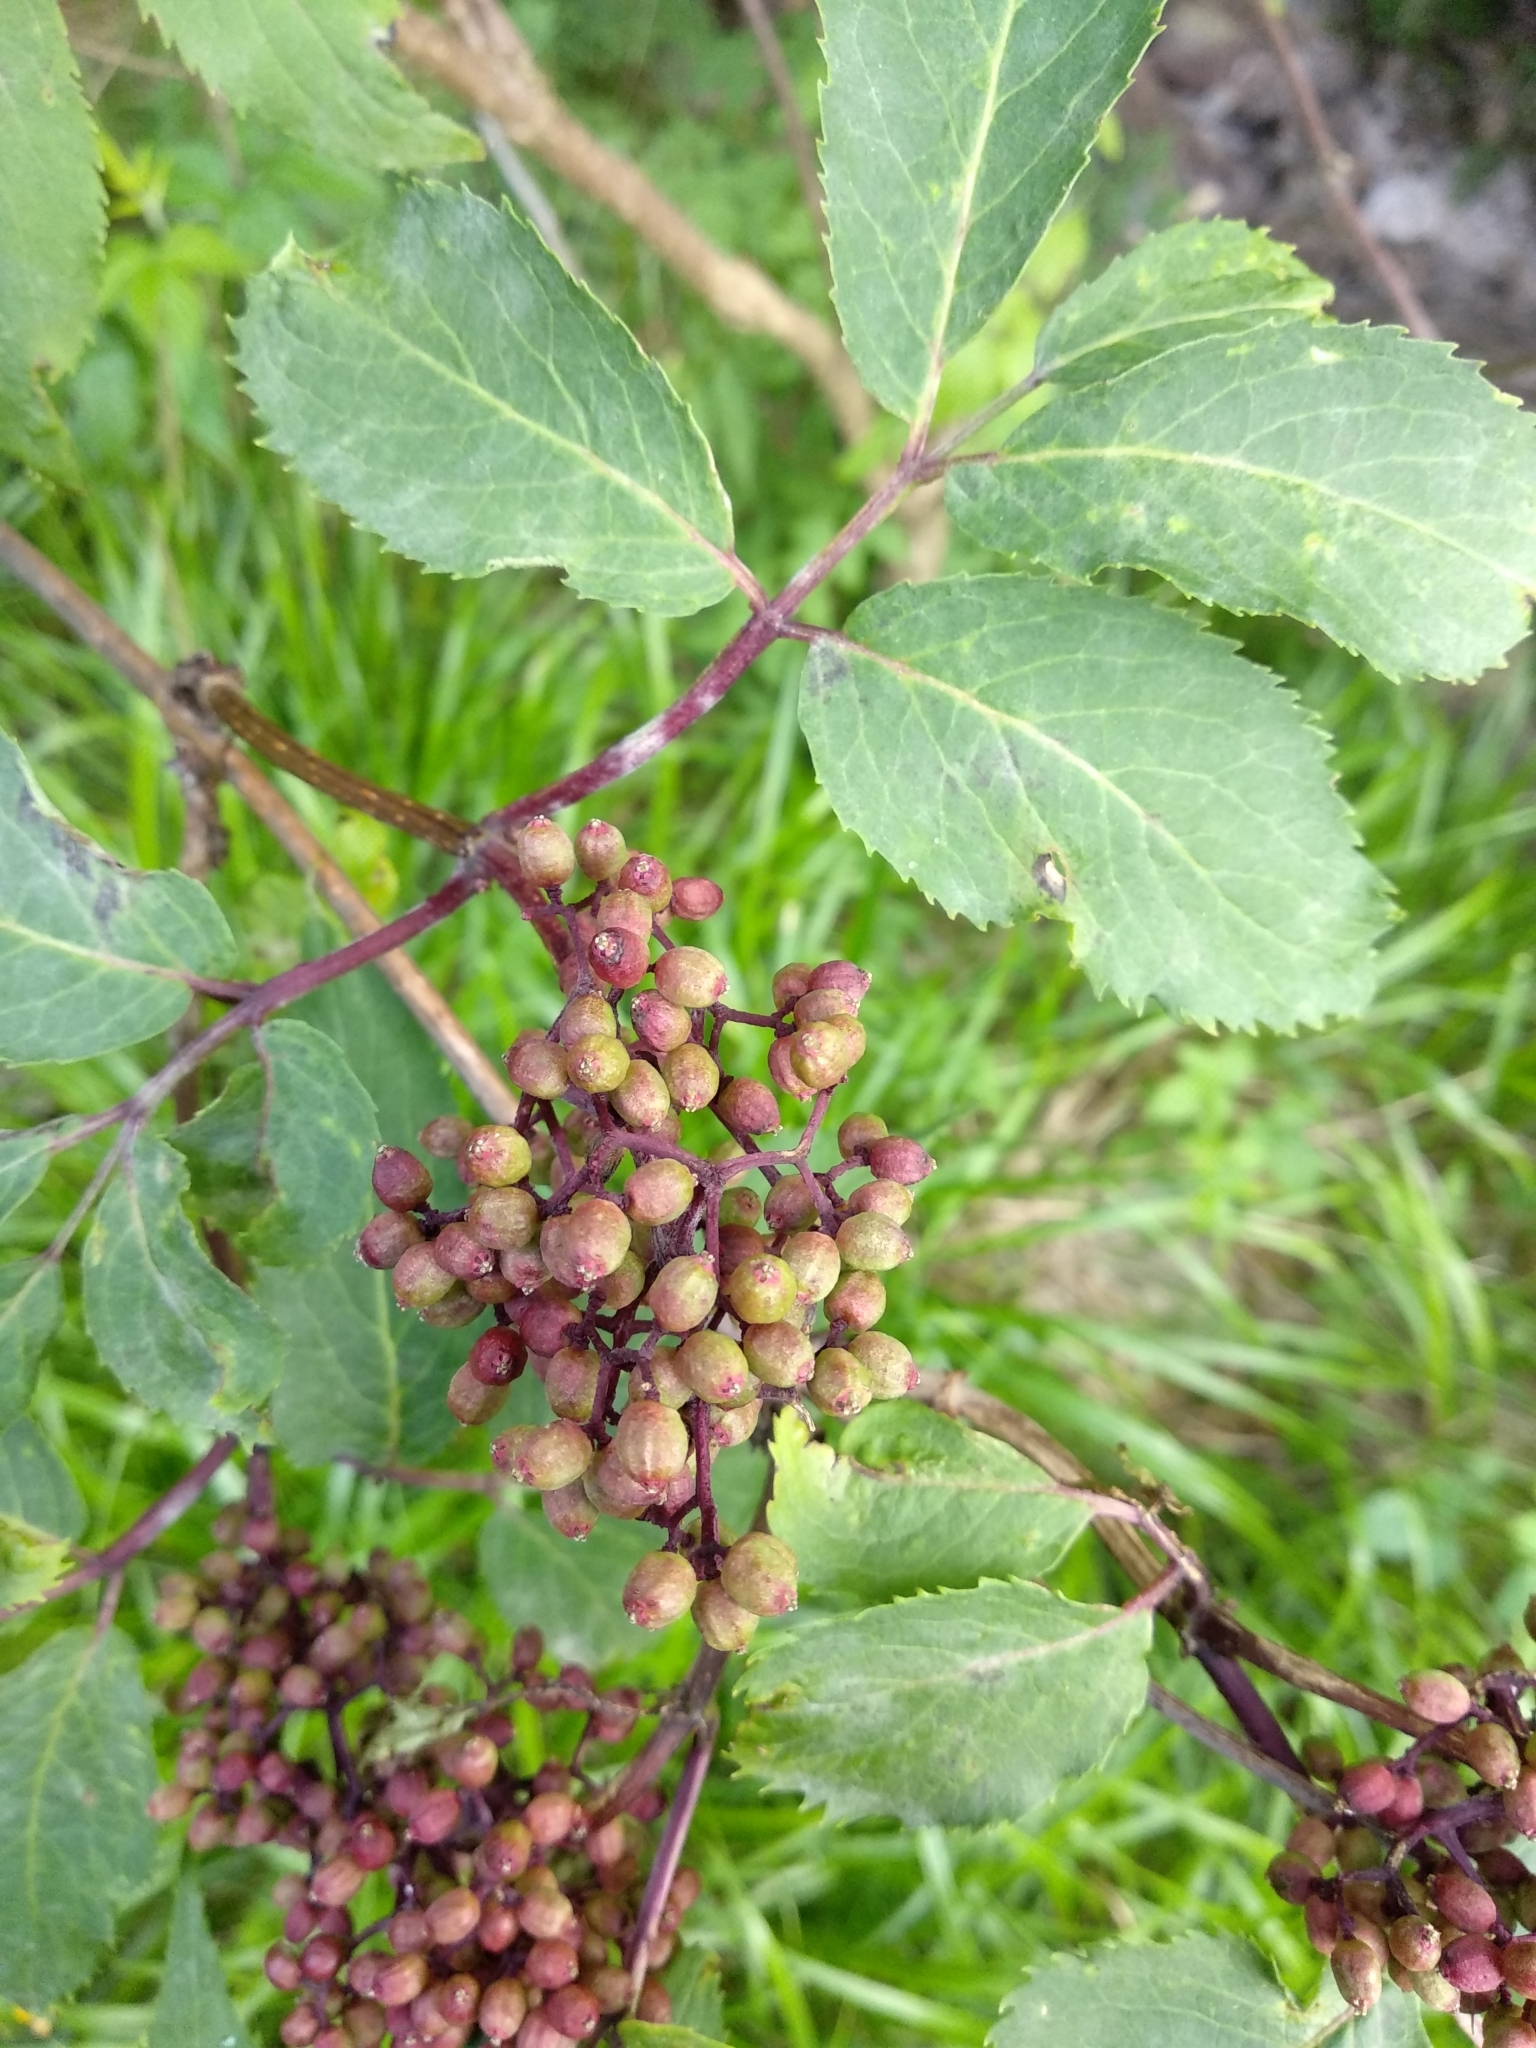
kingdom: Plantae
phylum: Tracheophyta
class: Magnoliopsida
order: Dipsacales
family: Viburnaceae
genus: Sambucus
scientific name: Sambucus racemosa
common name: Red-berried elder
